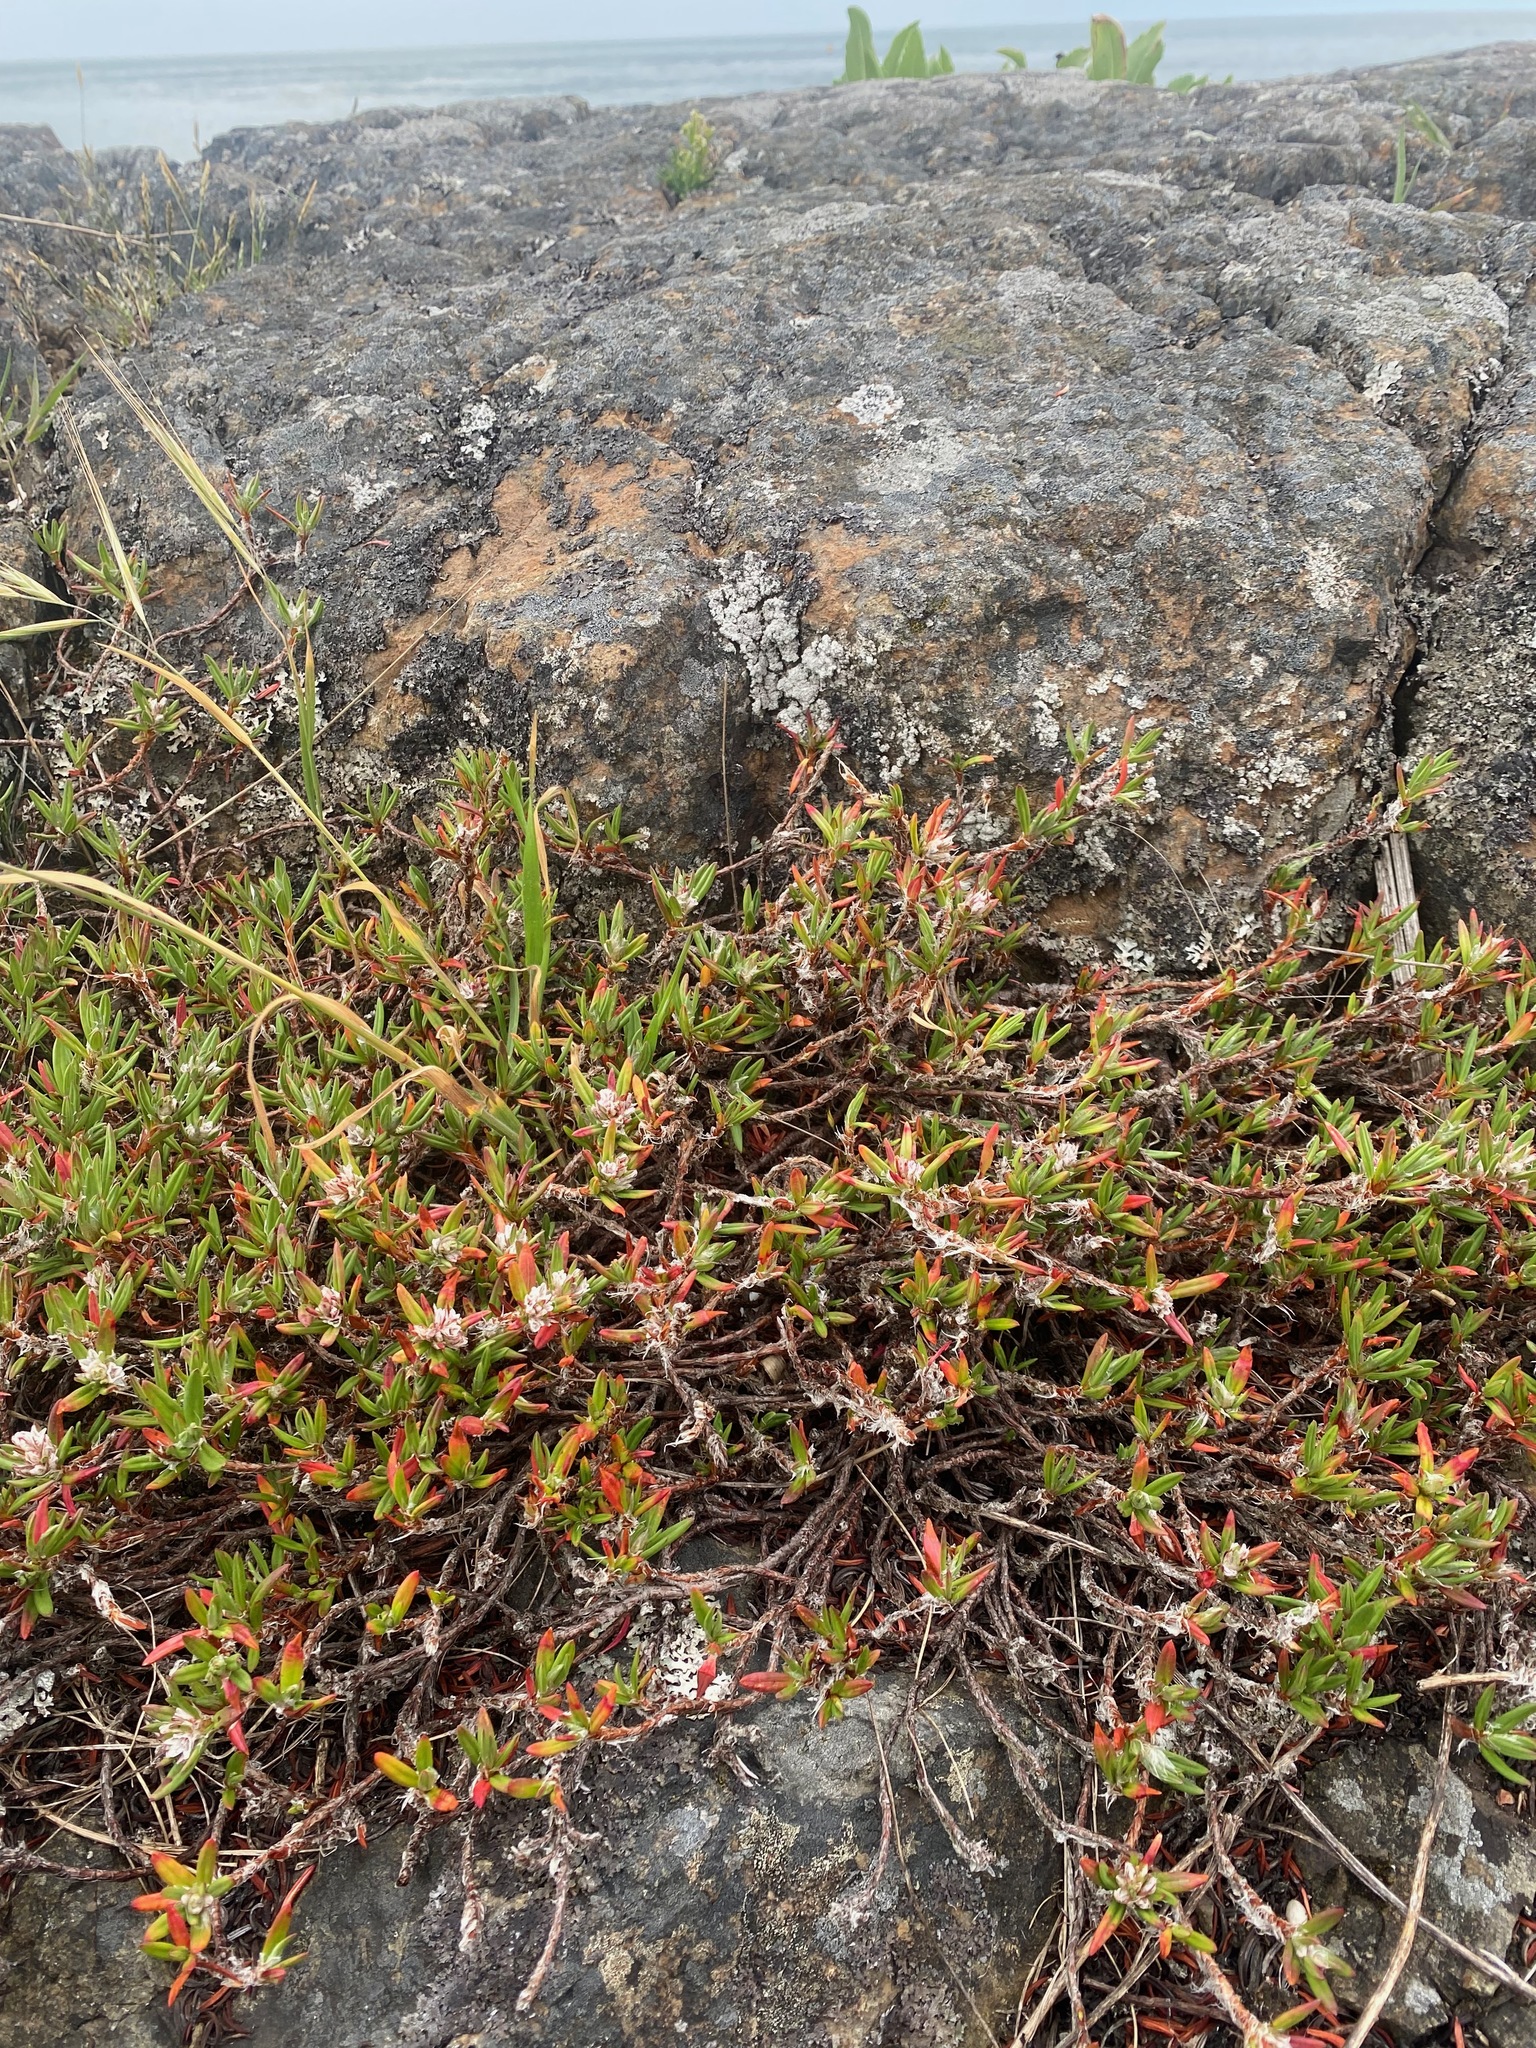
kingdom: Plantae
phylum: Tracheophyta
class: Magnoliopsida
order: Caryophyllales
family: Polygonaceae
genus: Polygonum
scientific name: Polygonum paronychia
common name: Dune knotweed
